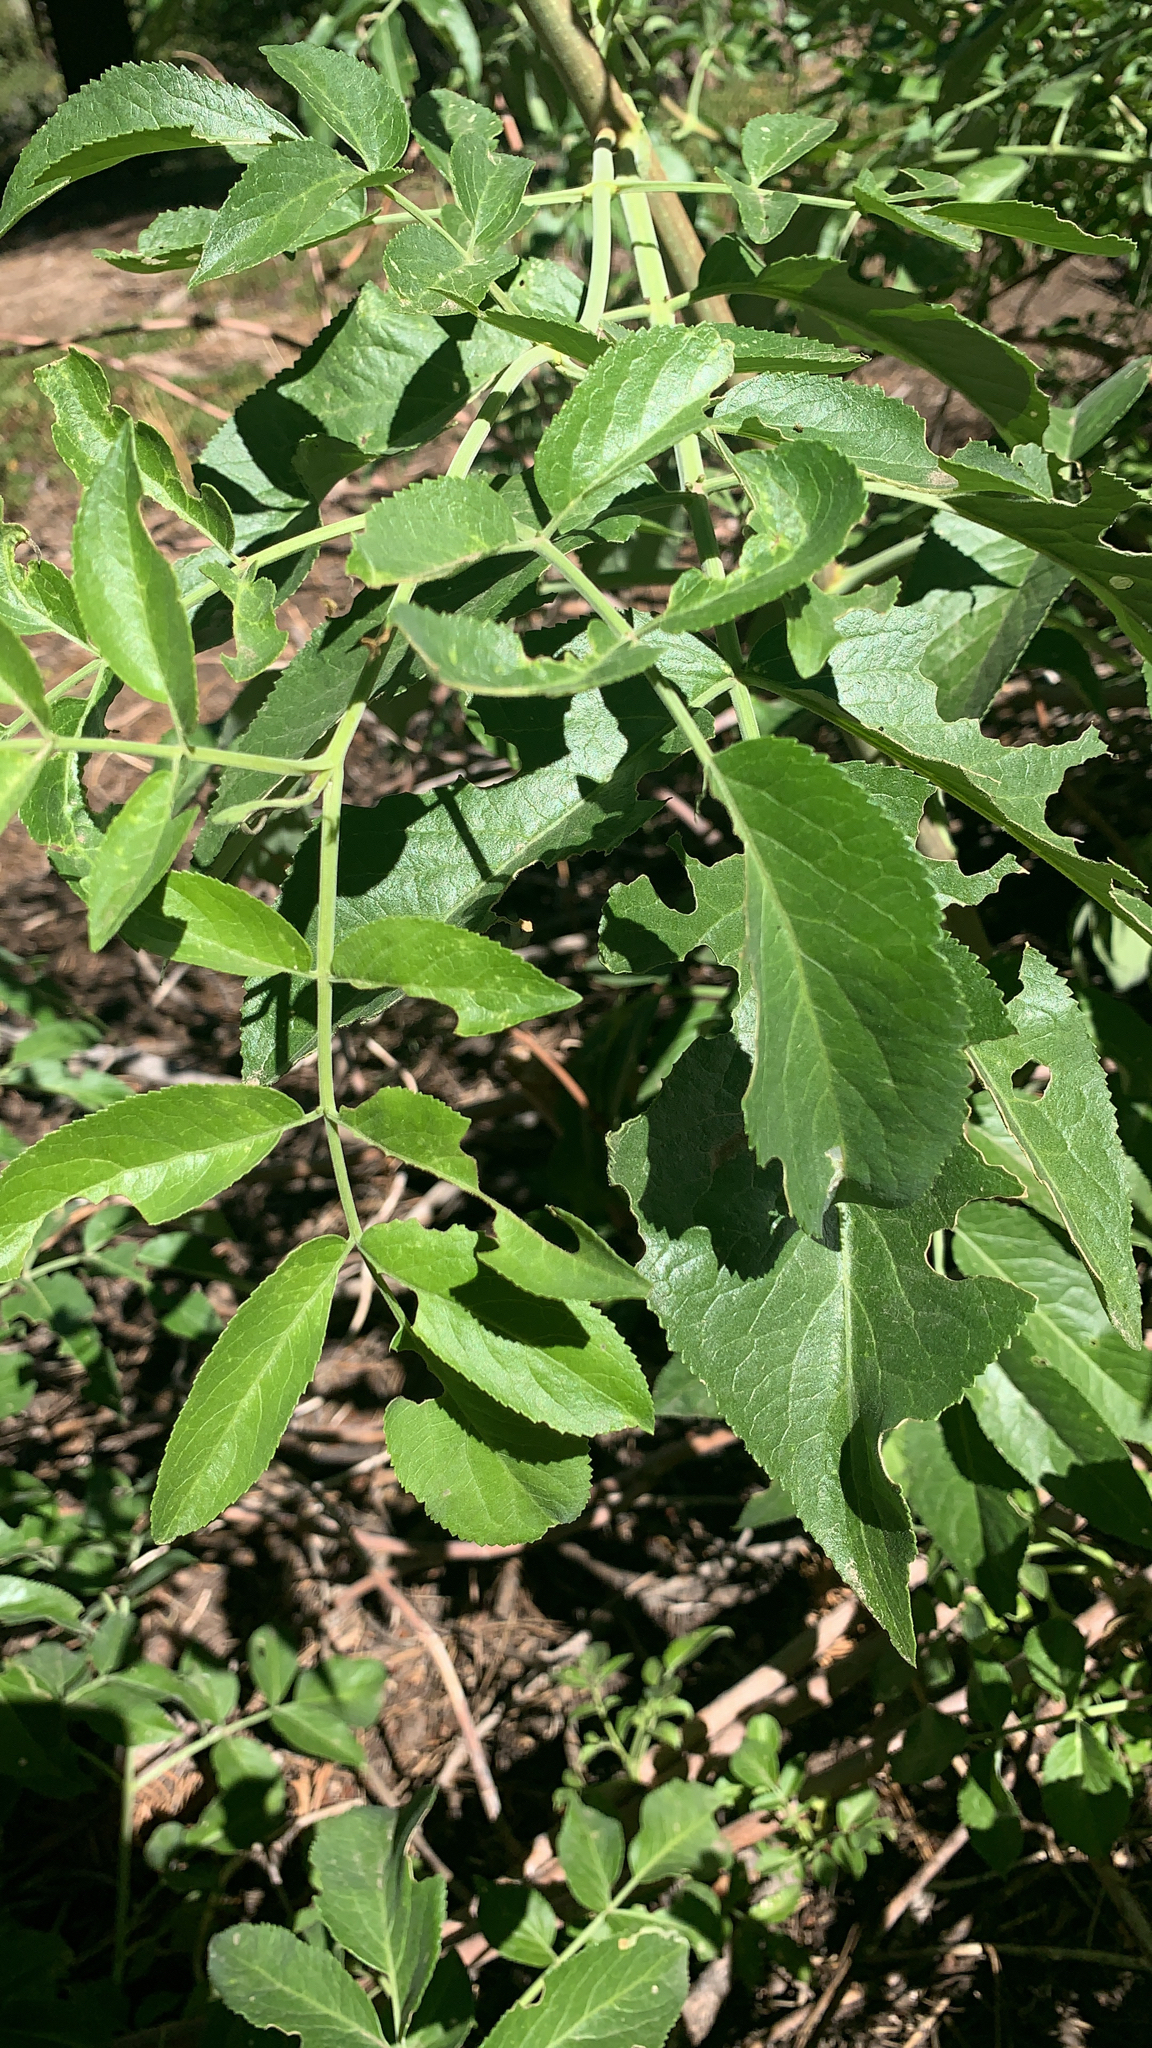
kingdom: Plantae
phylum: Tracheophyta
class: Magnoliopsida
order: Dipsacales
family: Viburnaceae
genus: Sambucus
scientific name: Sambucus cerulea
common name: Blue elder
